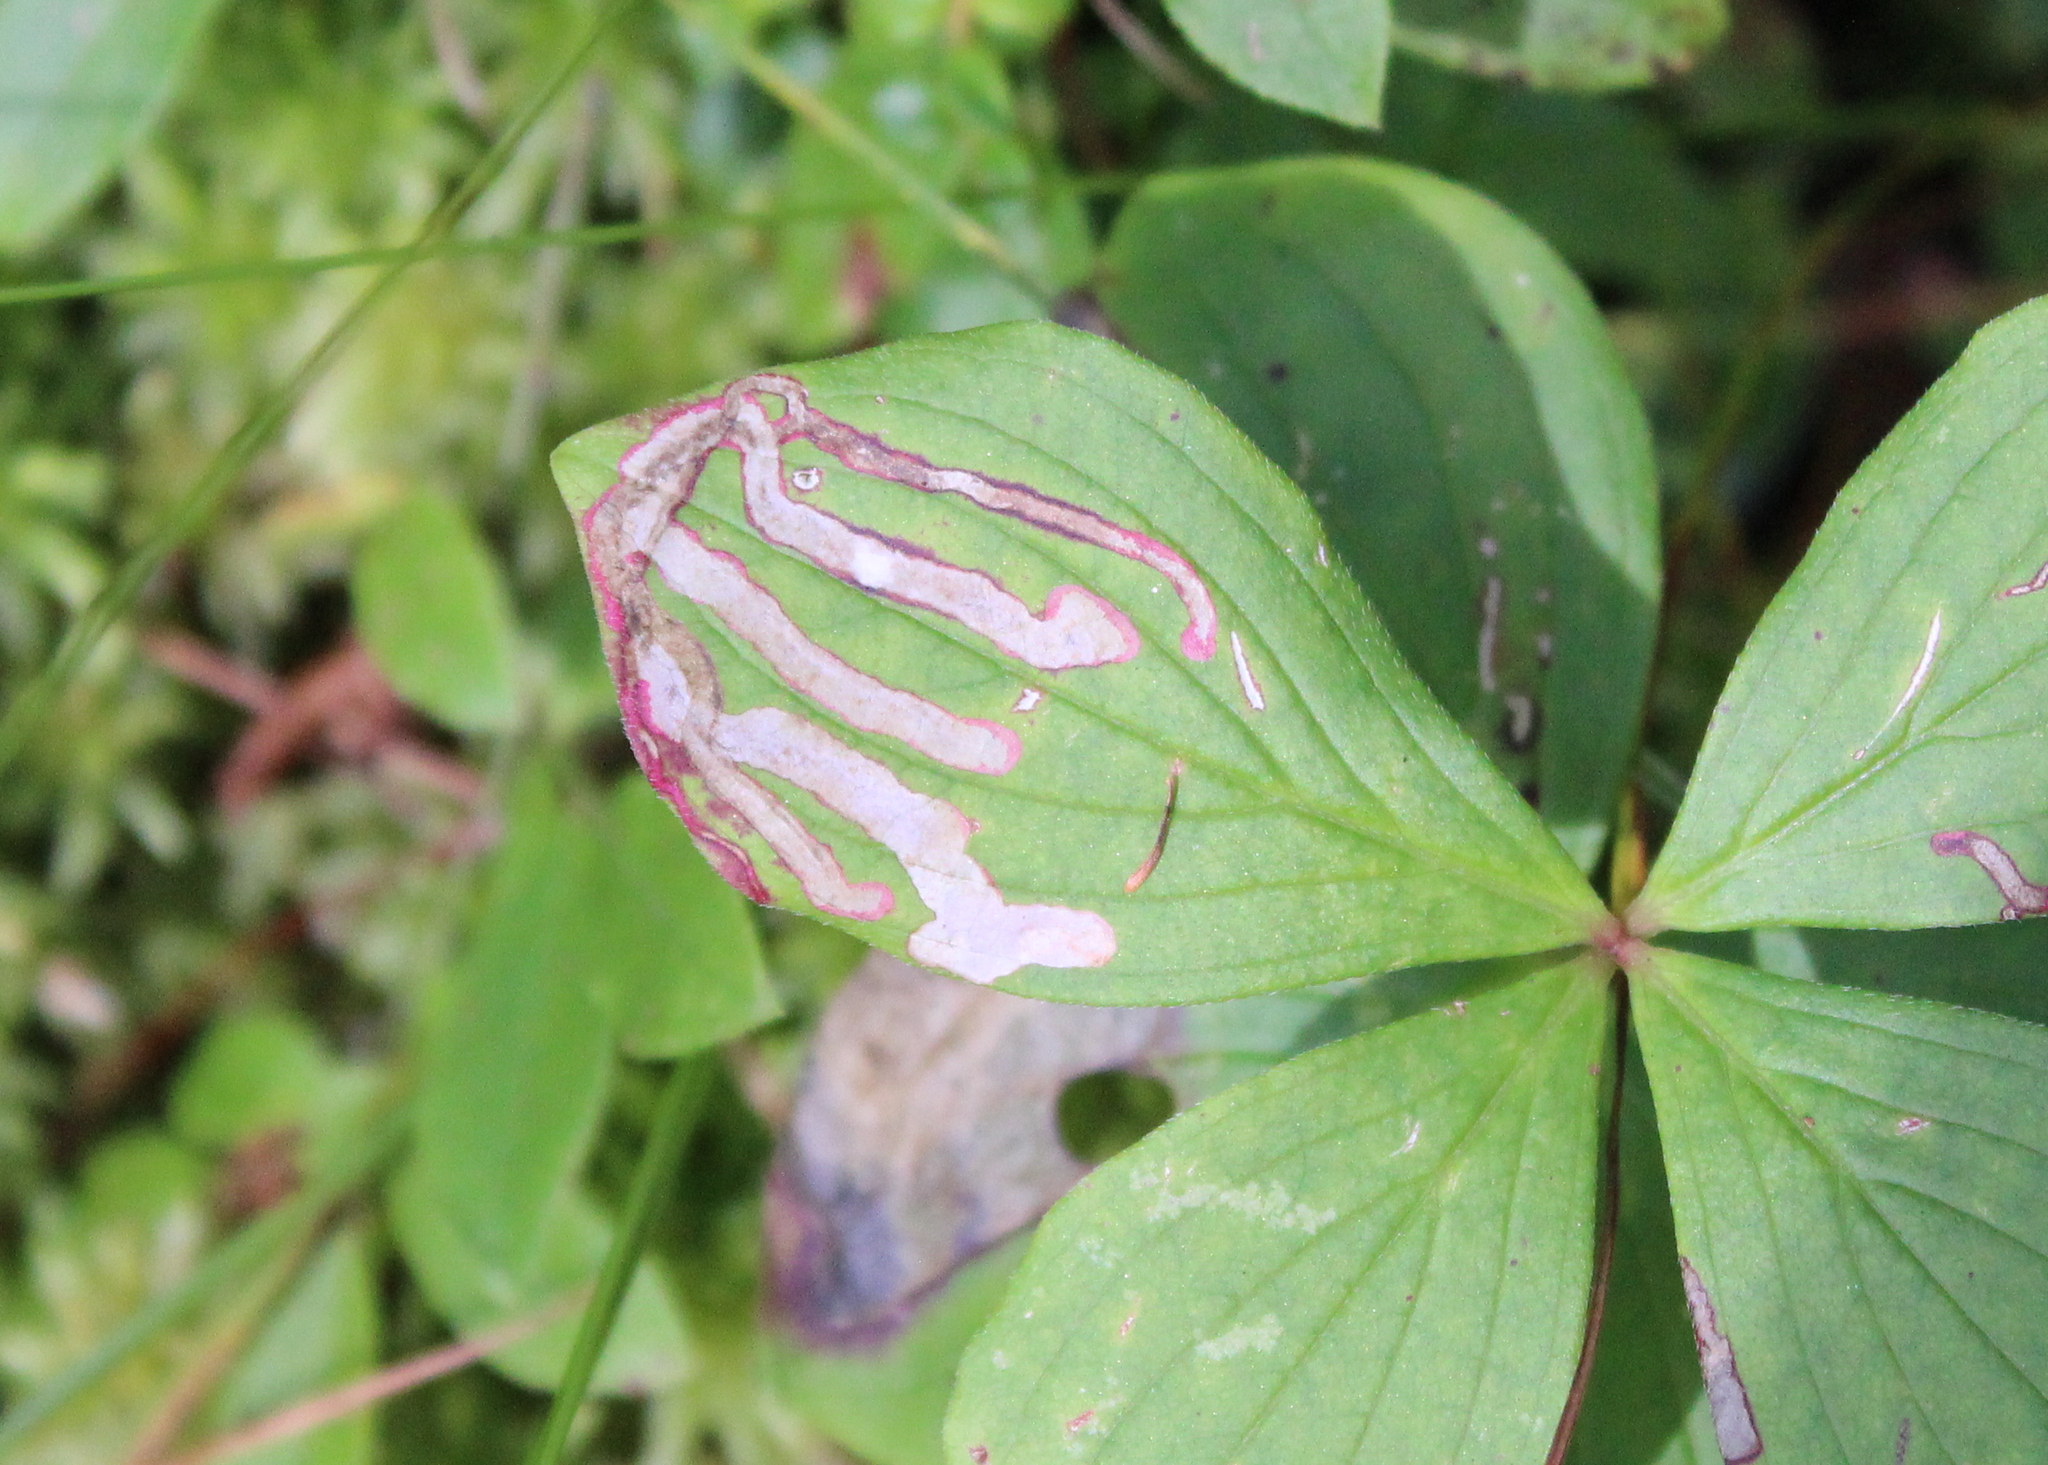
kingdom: Animalia
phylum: Arthropoda
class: Insecta
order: Diptera
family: Agromyzidae
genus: Phytomyza
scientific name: Phytomyza agromyzina
